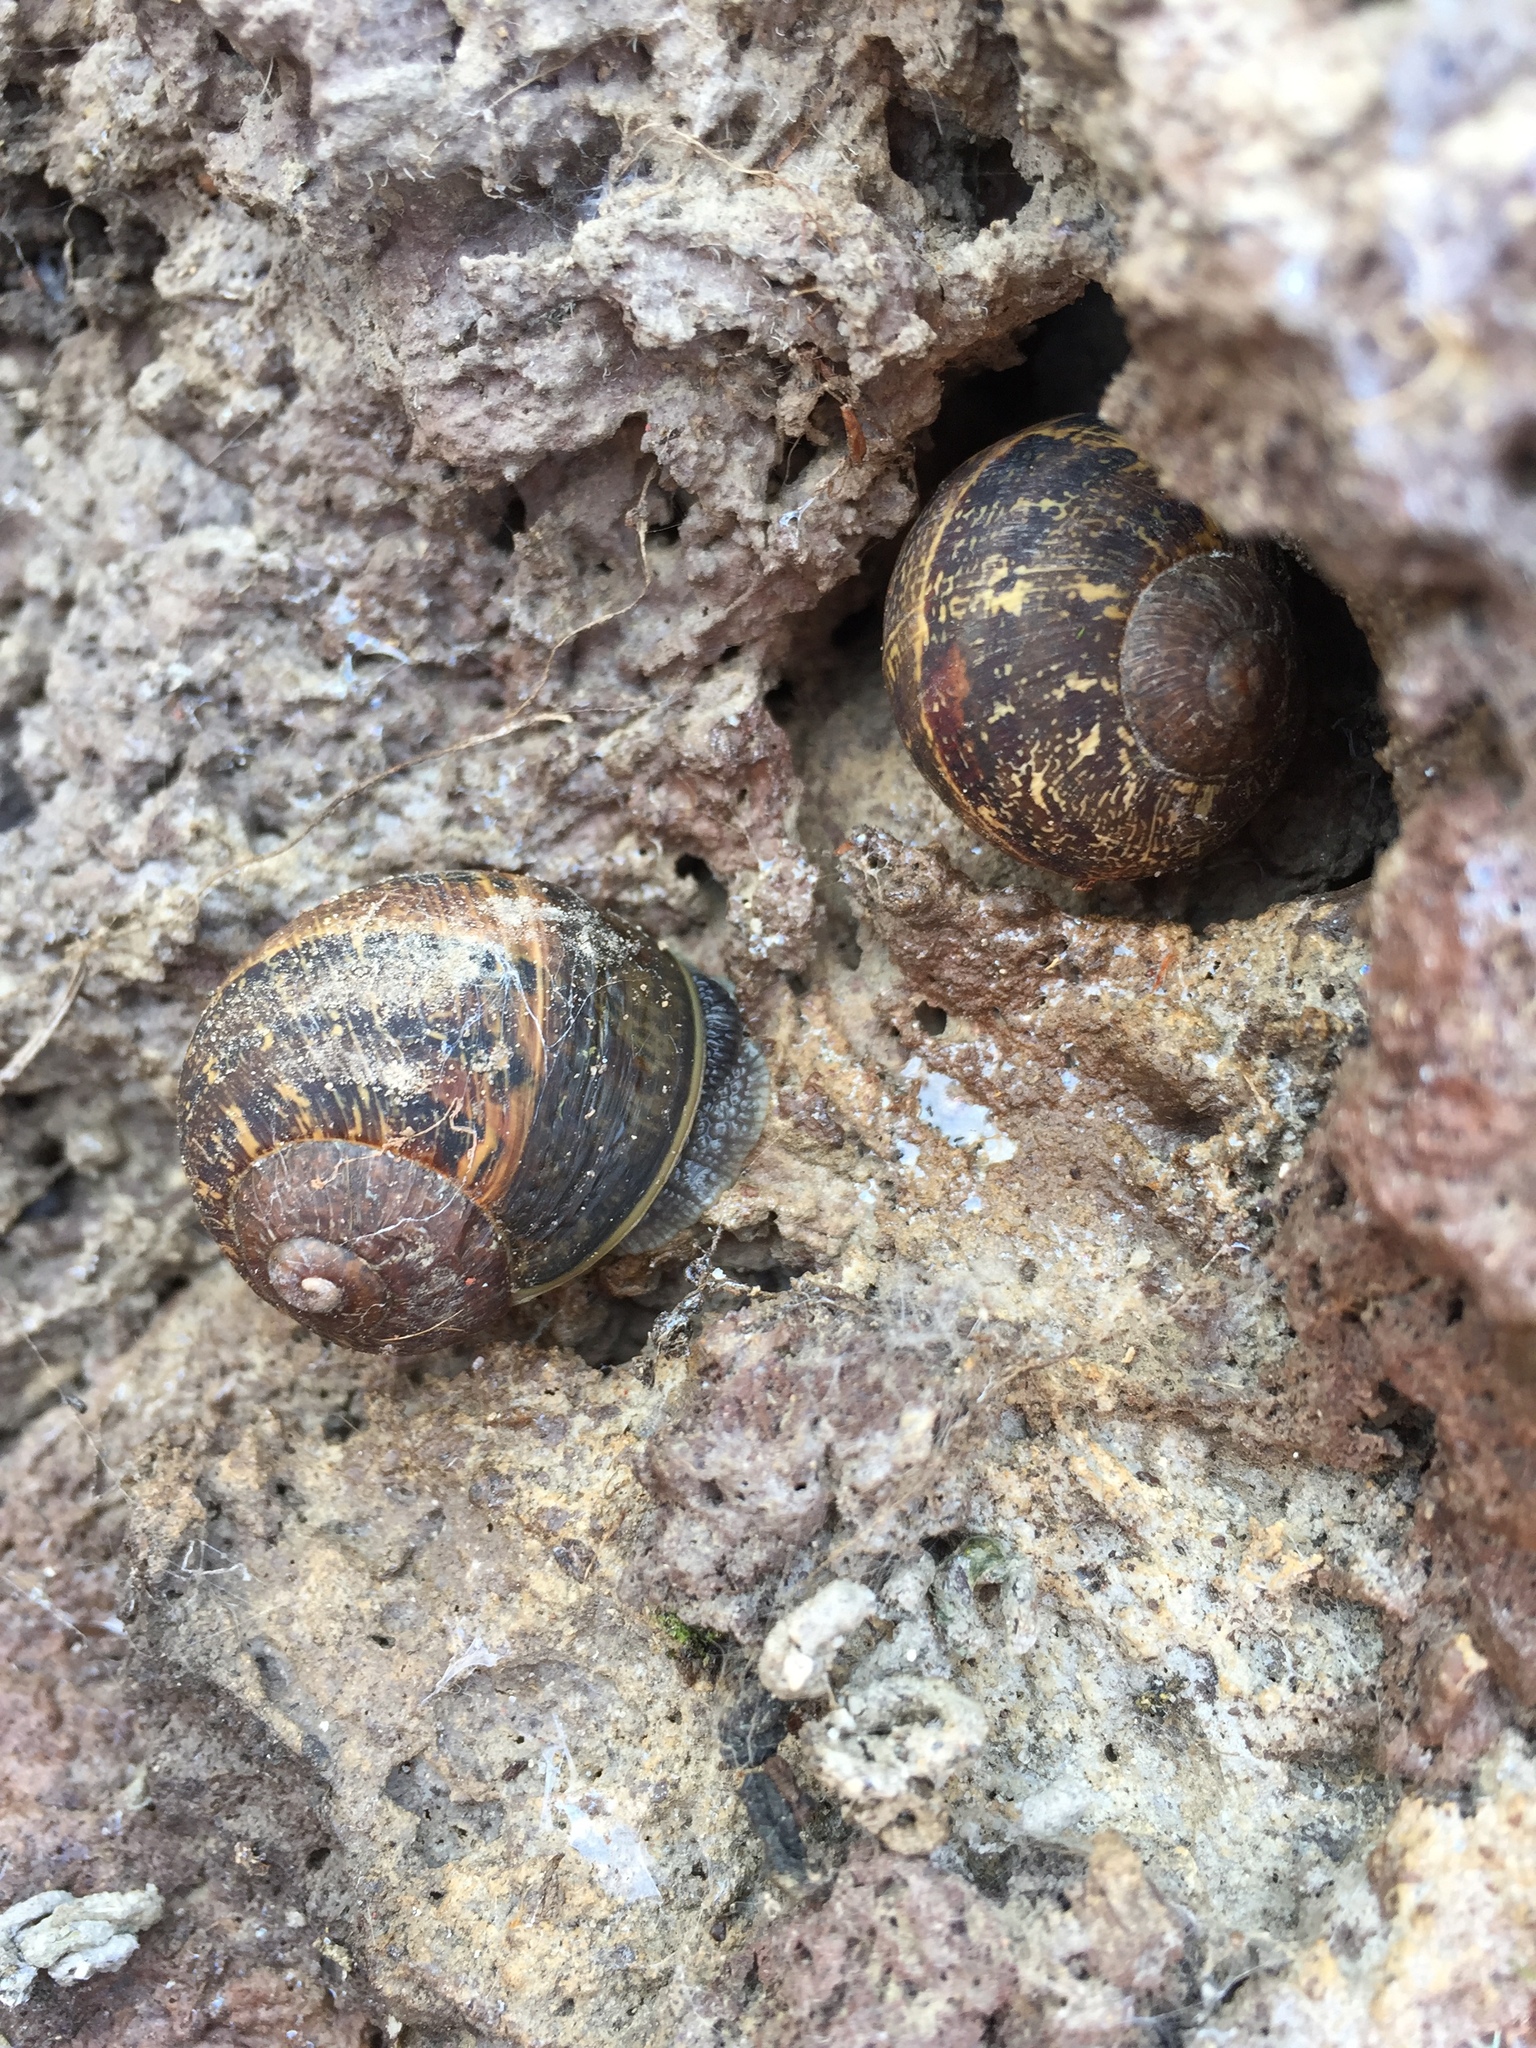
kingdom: Animalia
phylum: Mollusca
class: Gastropoda
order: Stylommatophora
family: Helicidae
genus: Cornu
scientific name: Cornu aspersum
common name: Brown garden snail
